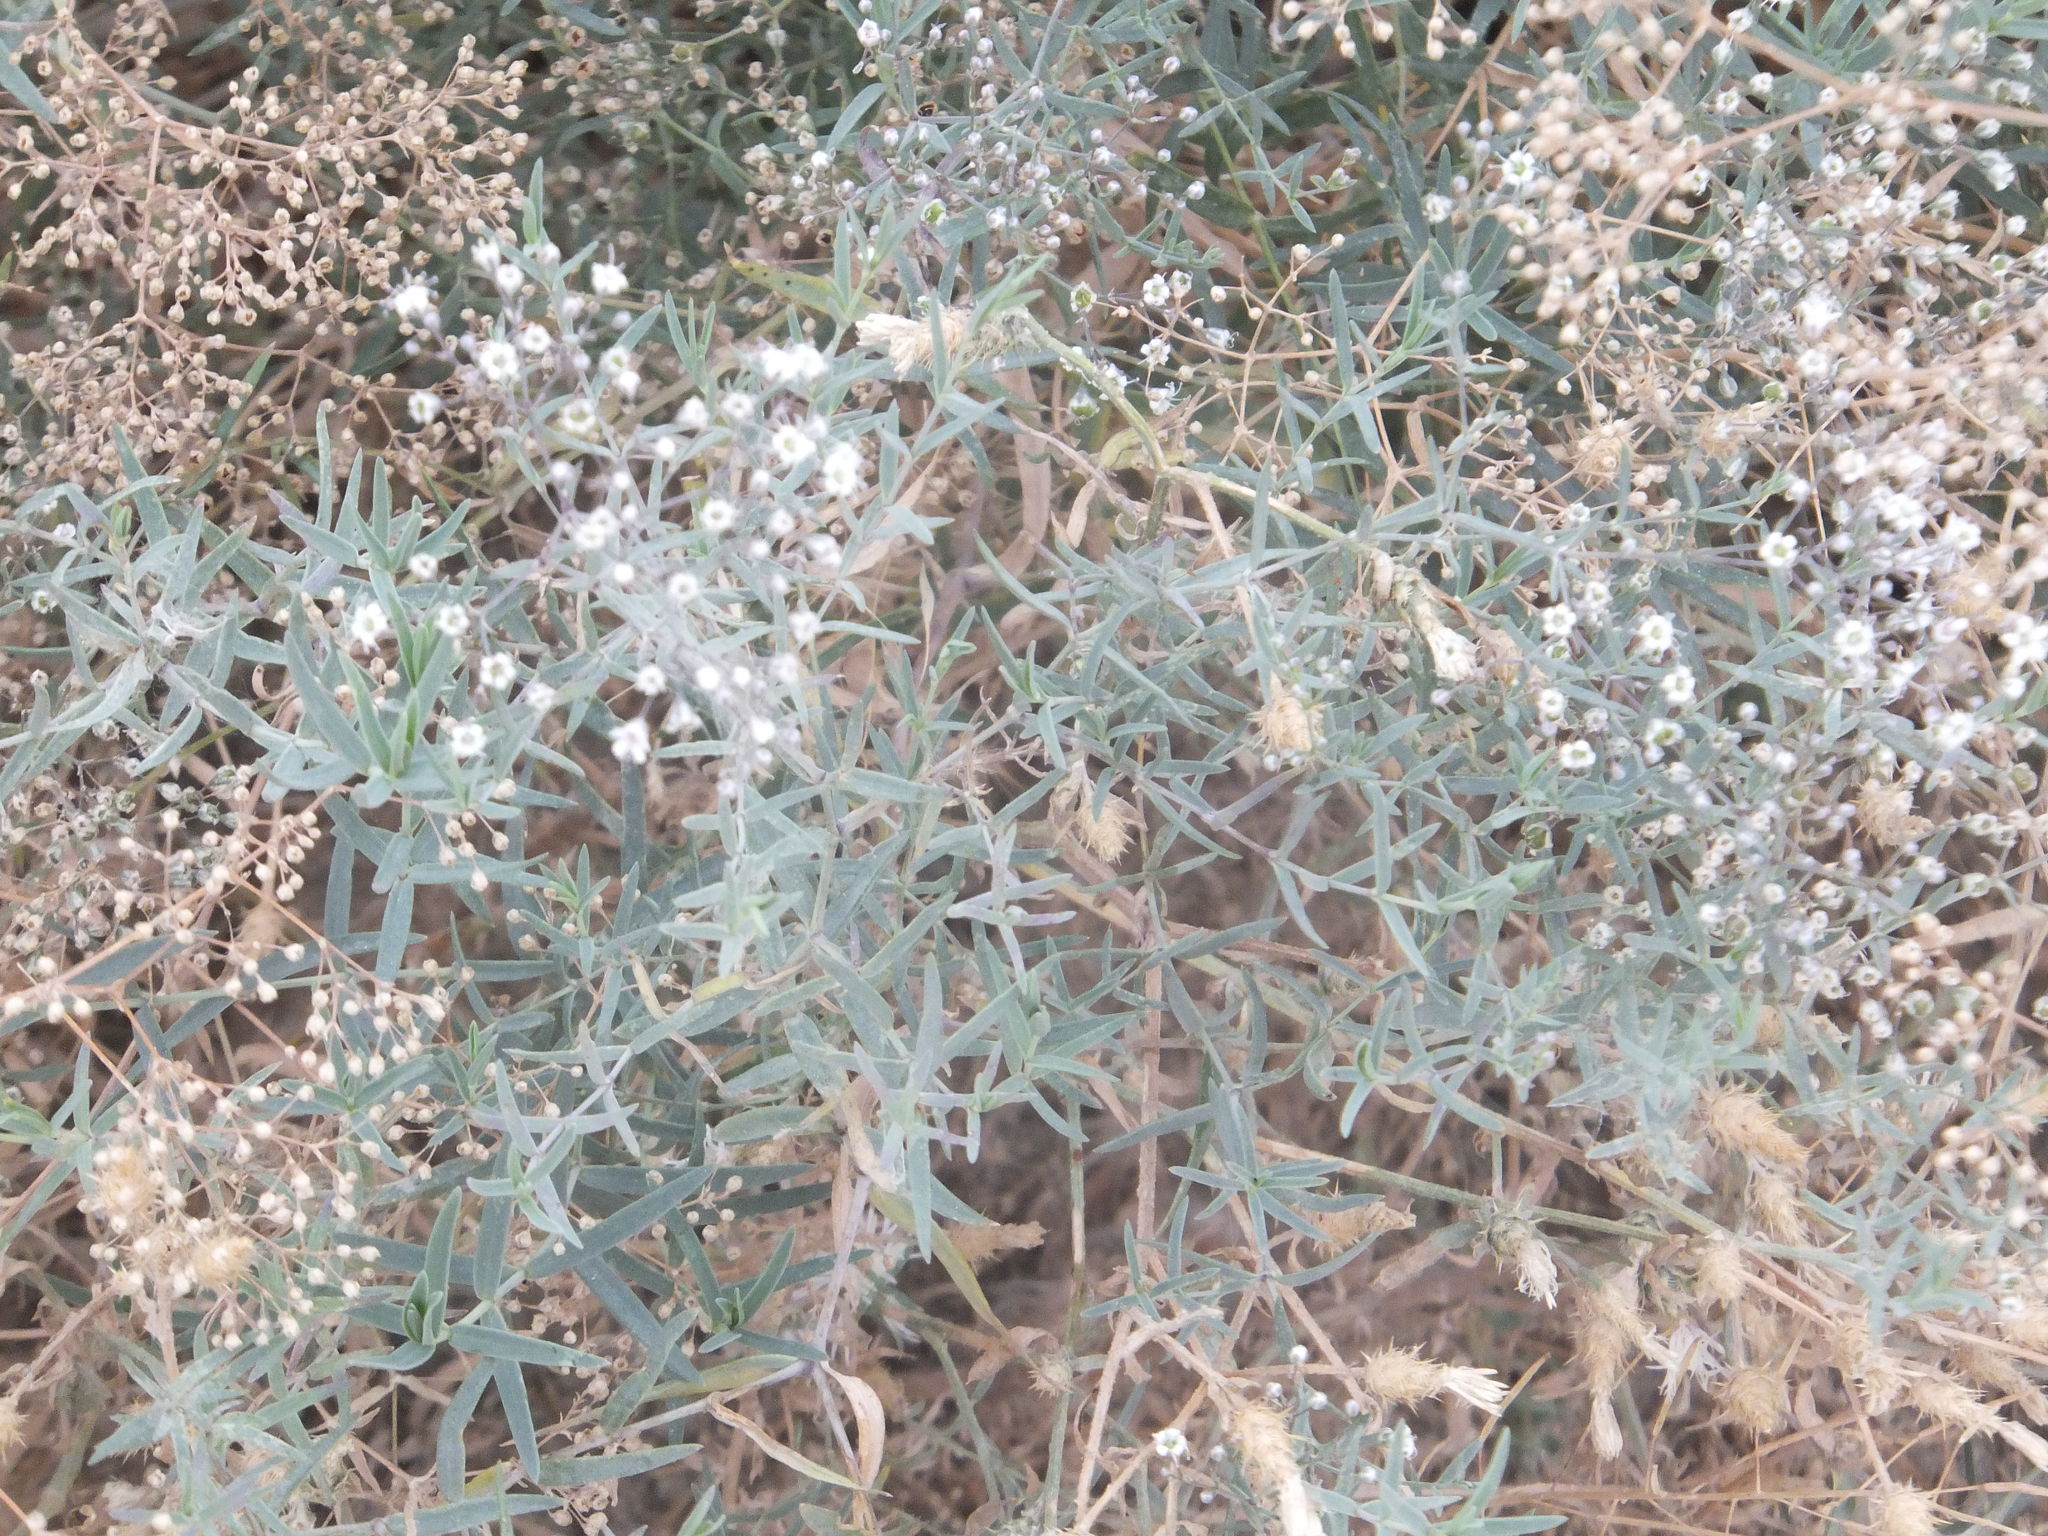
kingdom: Plantae
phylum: Tracheophyta
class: Magnoliopsida
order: Caryophyllales
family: Caryophyllaceae
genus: Gypsophila
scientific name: Gypsophila paniculata
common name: Baby's-breath
